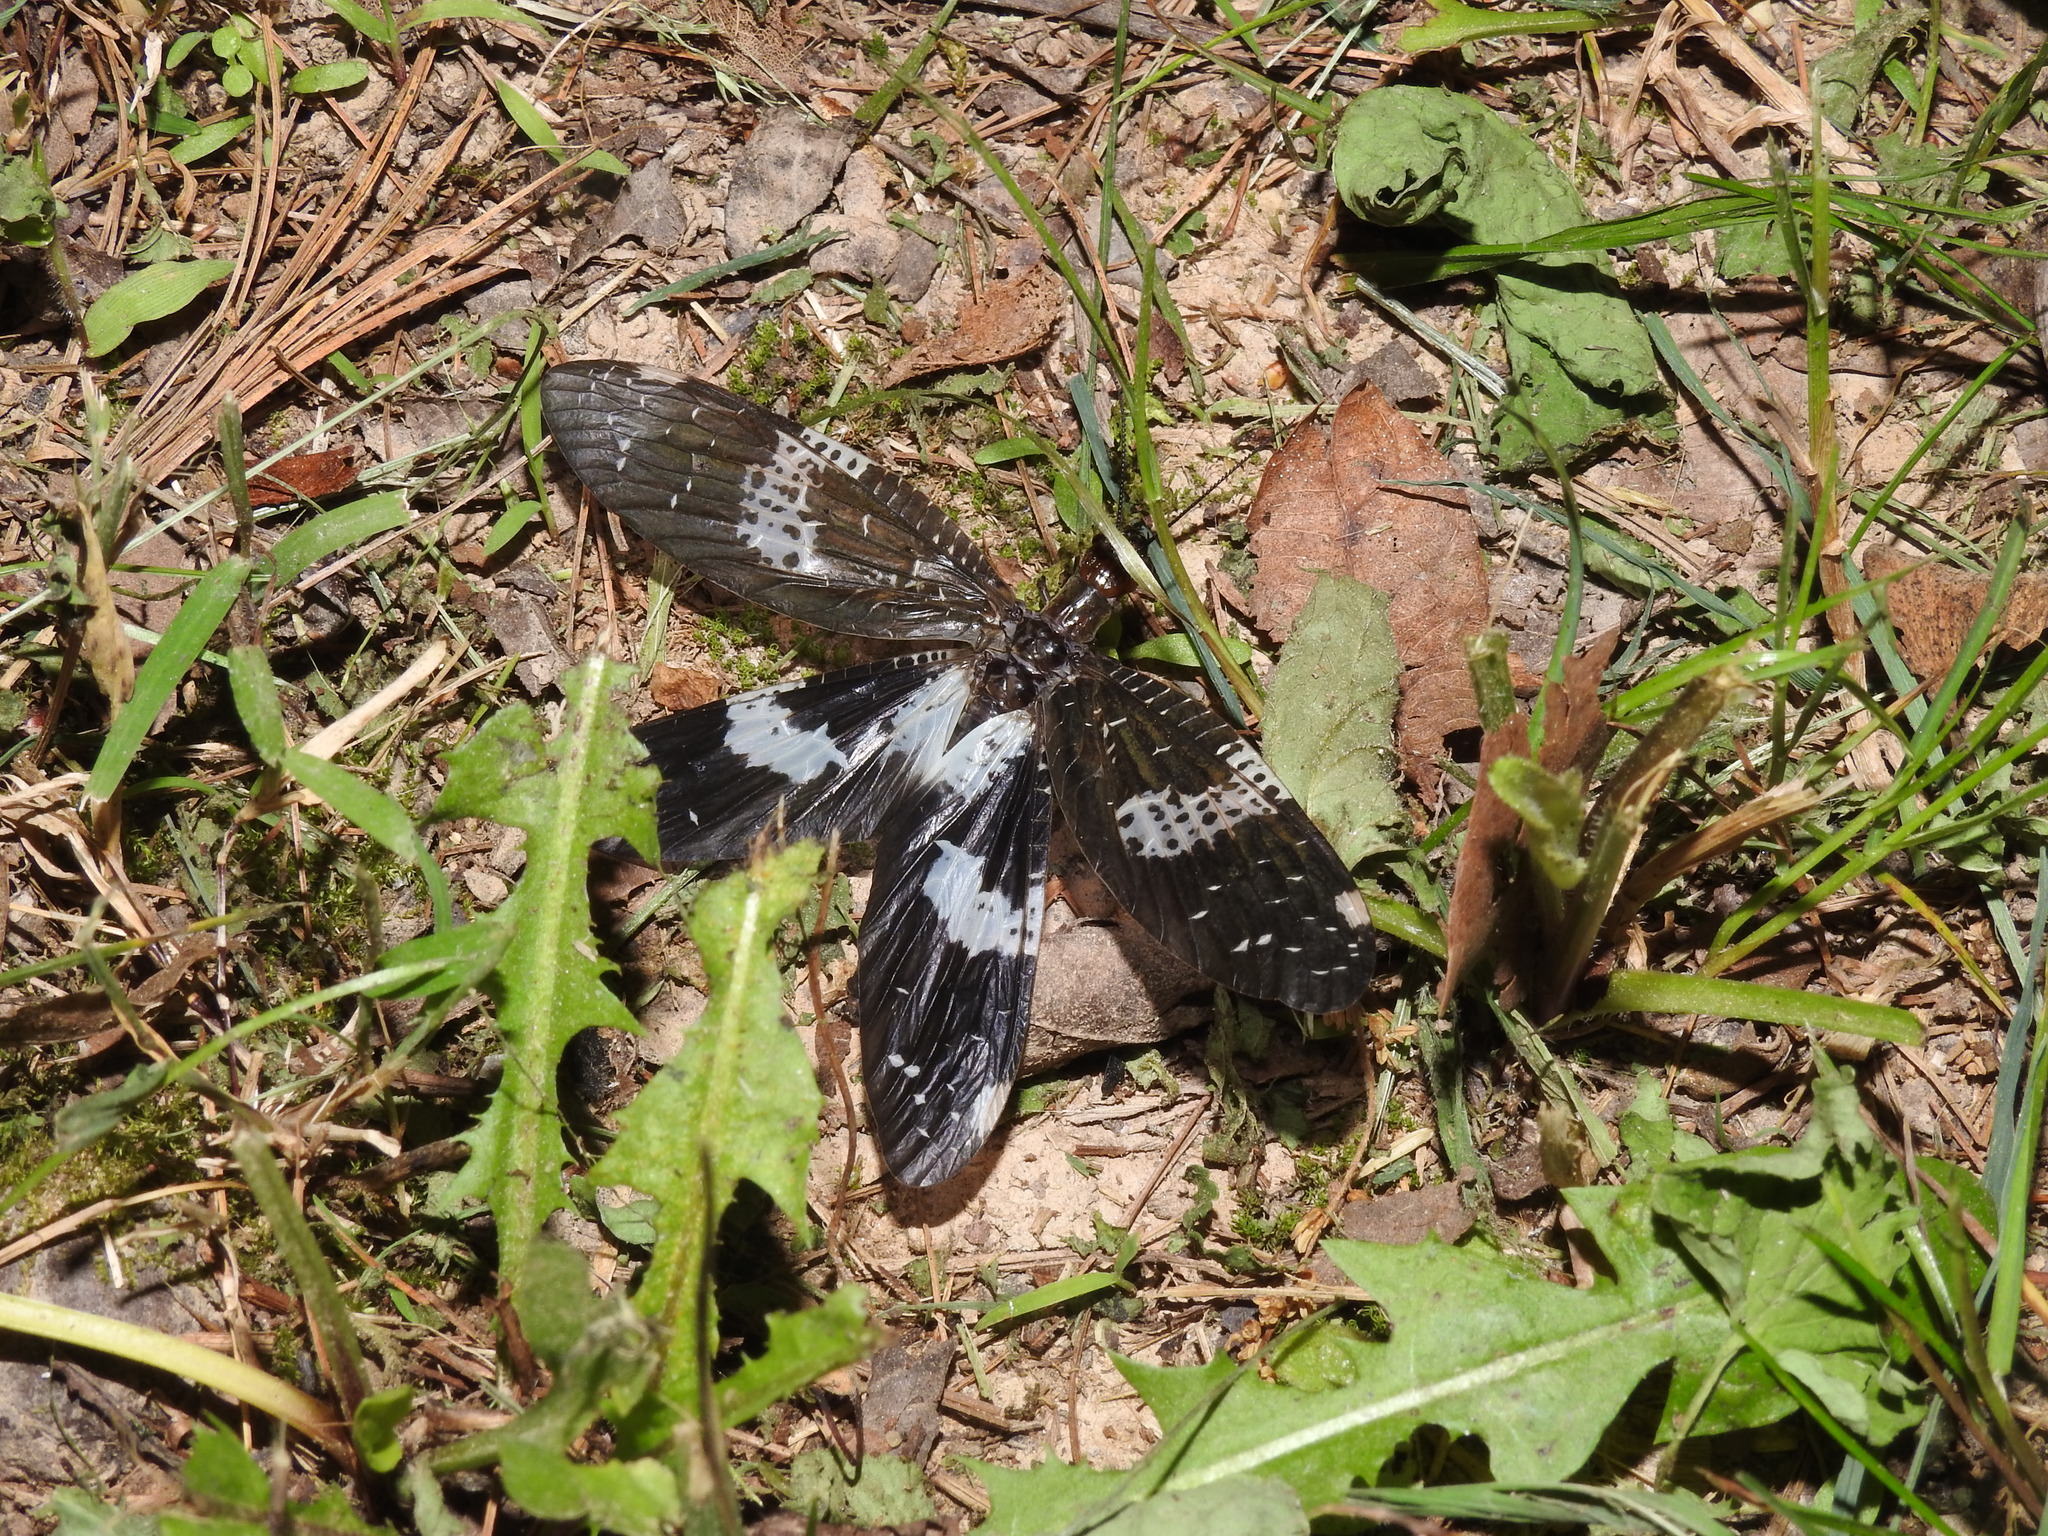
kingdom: Animalia
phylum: Arthropoda
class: Insecta
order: Megaloptera
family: Corydalidae
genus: Nigronia
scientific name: Nigronia fasciata
